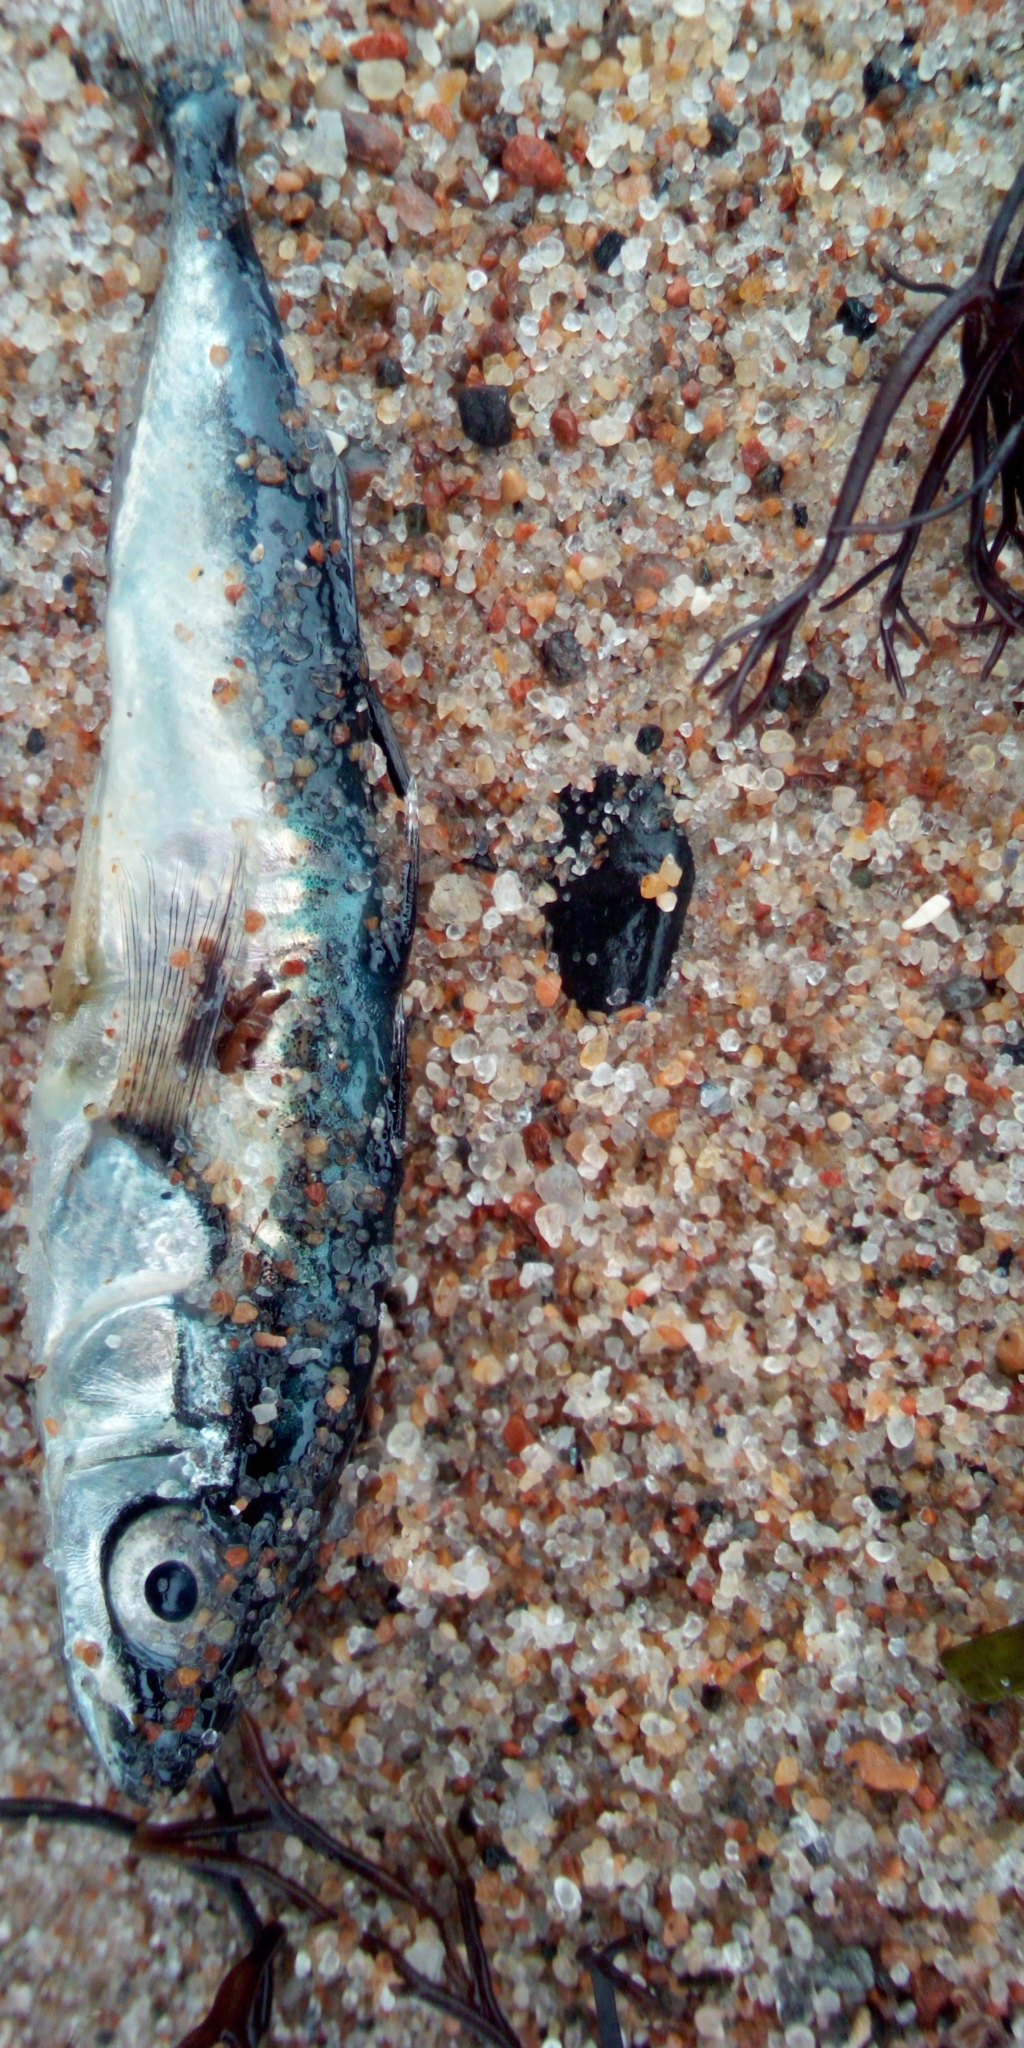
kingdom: Animalia
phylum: Chordata
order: Gasterosteiformes
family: Gasterosteidae
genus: Gasterosteus
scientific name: Gasterosteus aculeatus
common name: Three-spined stickleback
